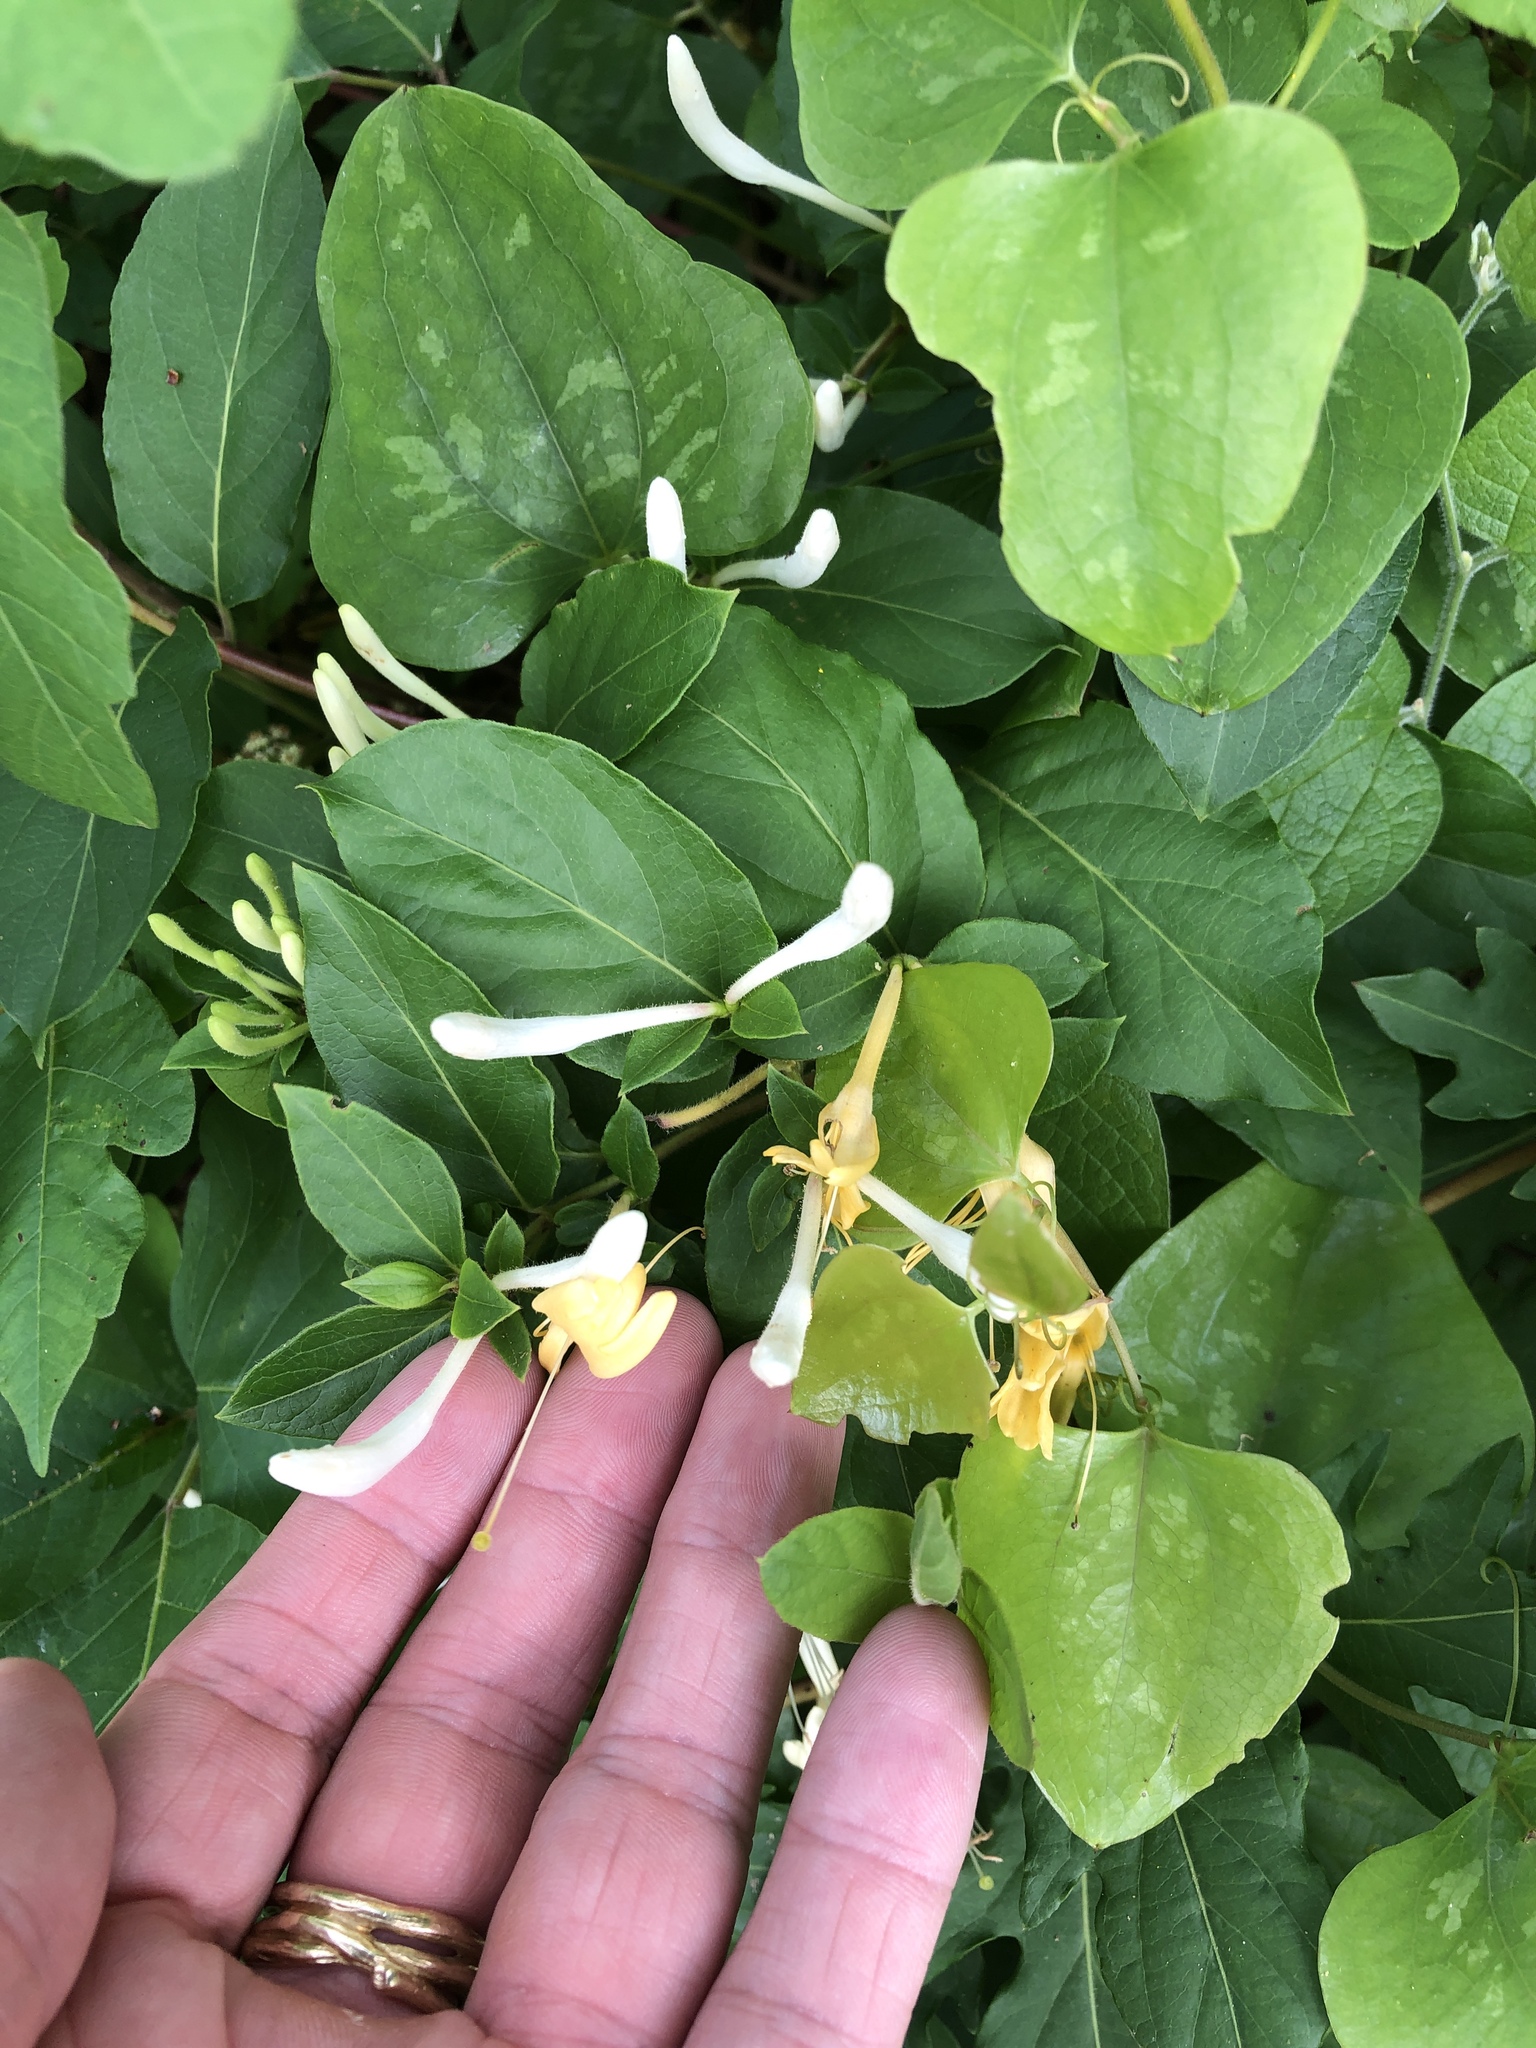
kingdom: Plantae
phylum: Tracheophyta
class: Magnoliopsida
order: Dipsacales
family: Caprifoliaceae
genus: Lonicera
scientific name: Lonicera japonica
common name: Japanese honeysuckle
